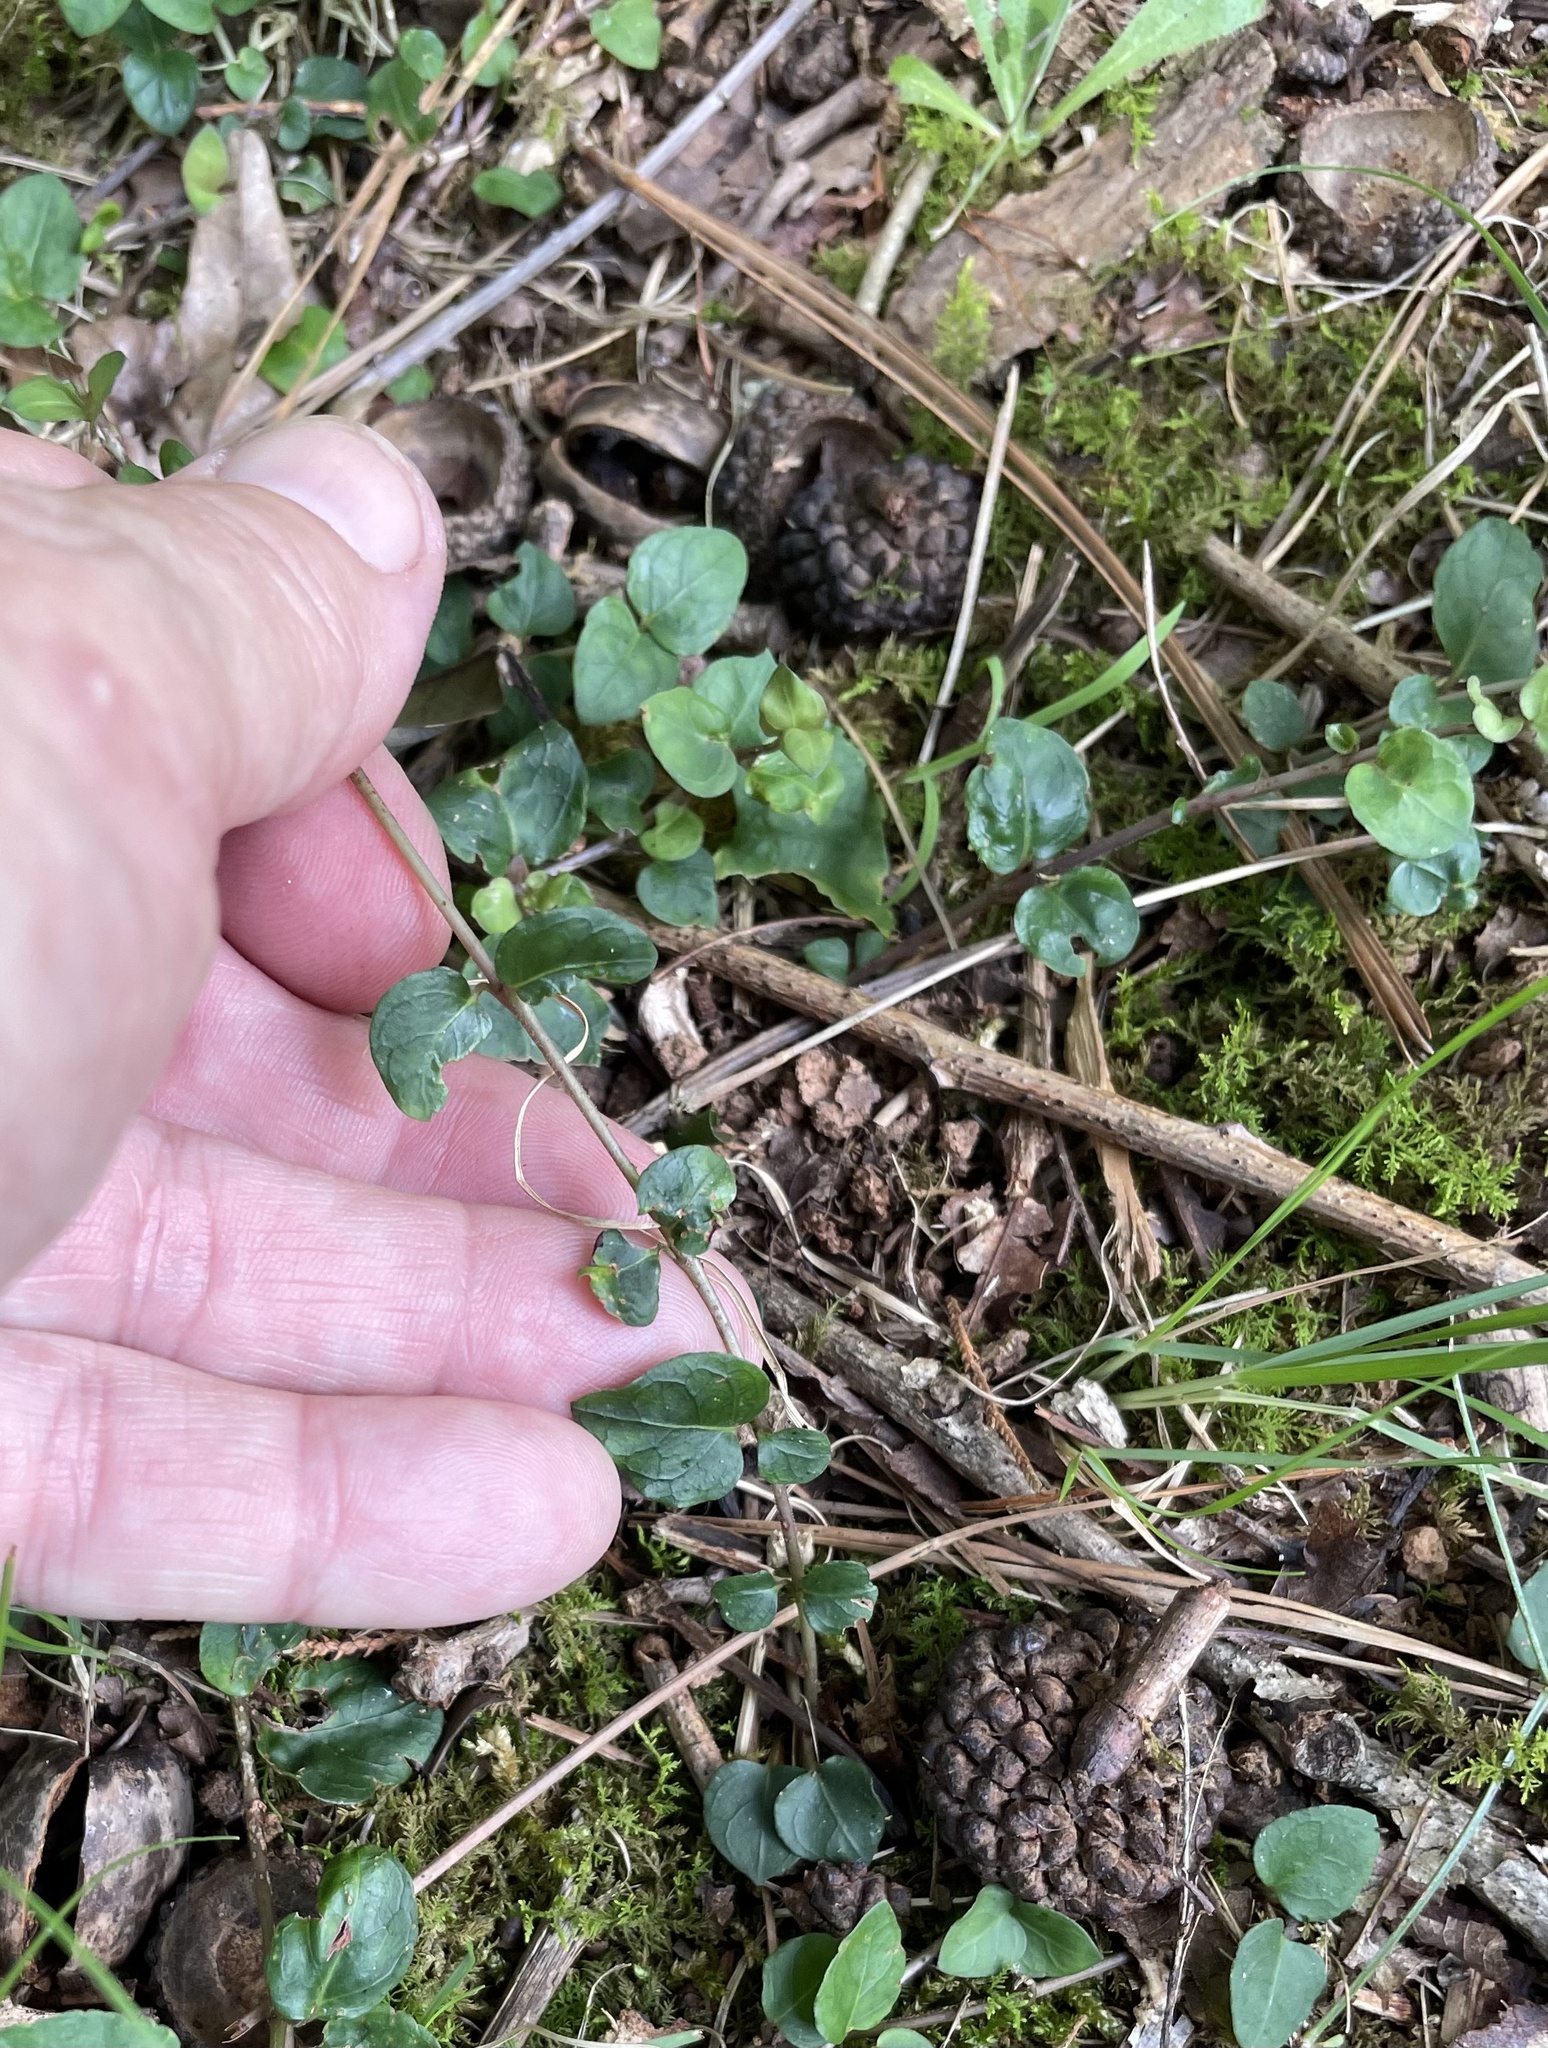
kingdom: Plantae
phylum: Tracheophyta
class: Magnoliopsida
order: Gentianales
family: Rubiaceae
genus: Mitchella
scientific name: Mitchella repens
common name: Partridge-berry
